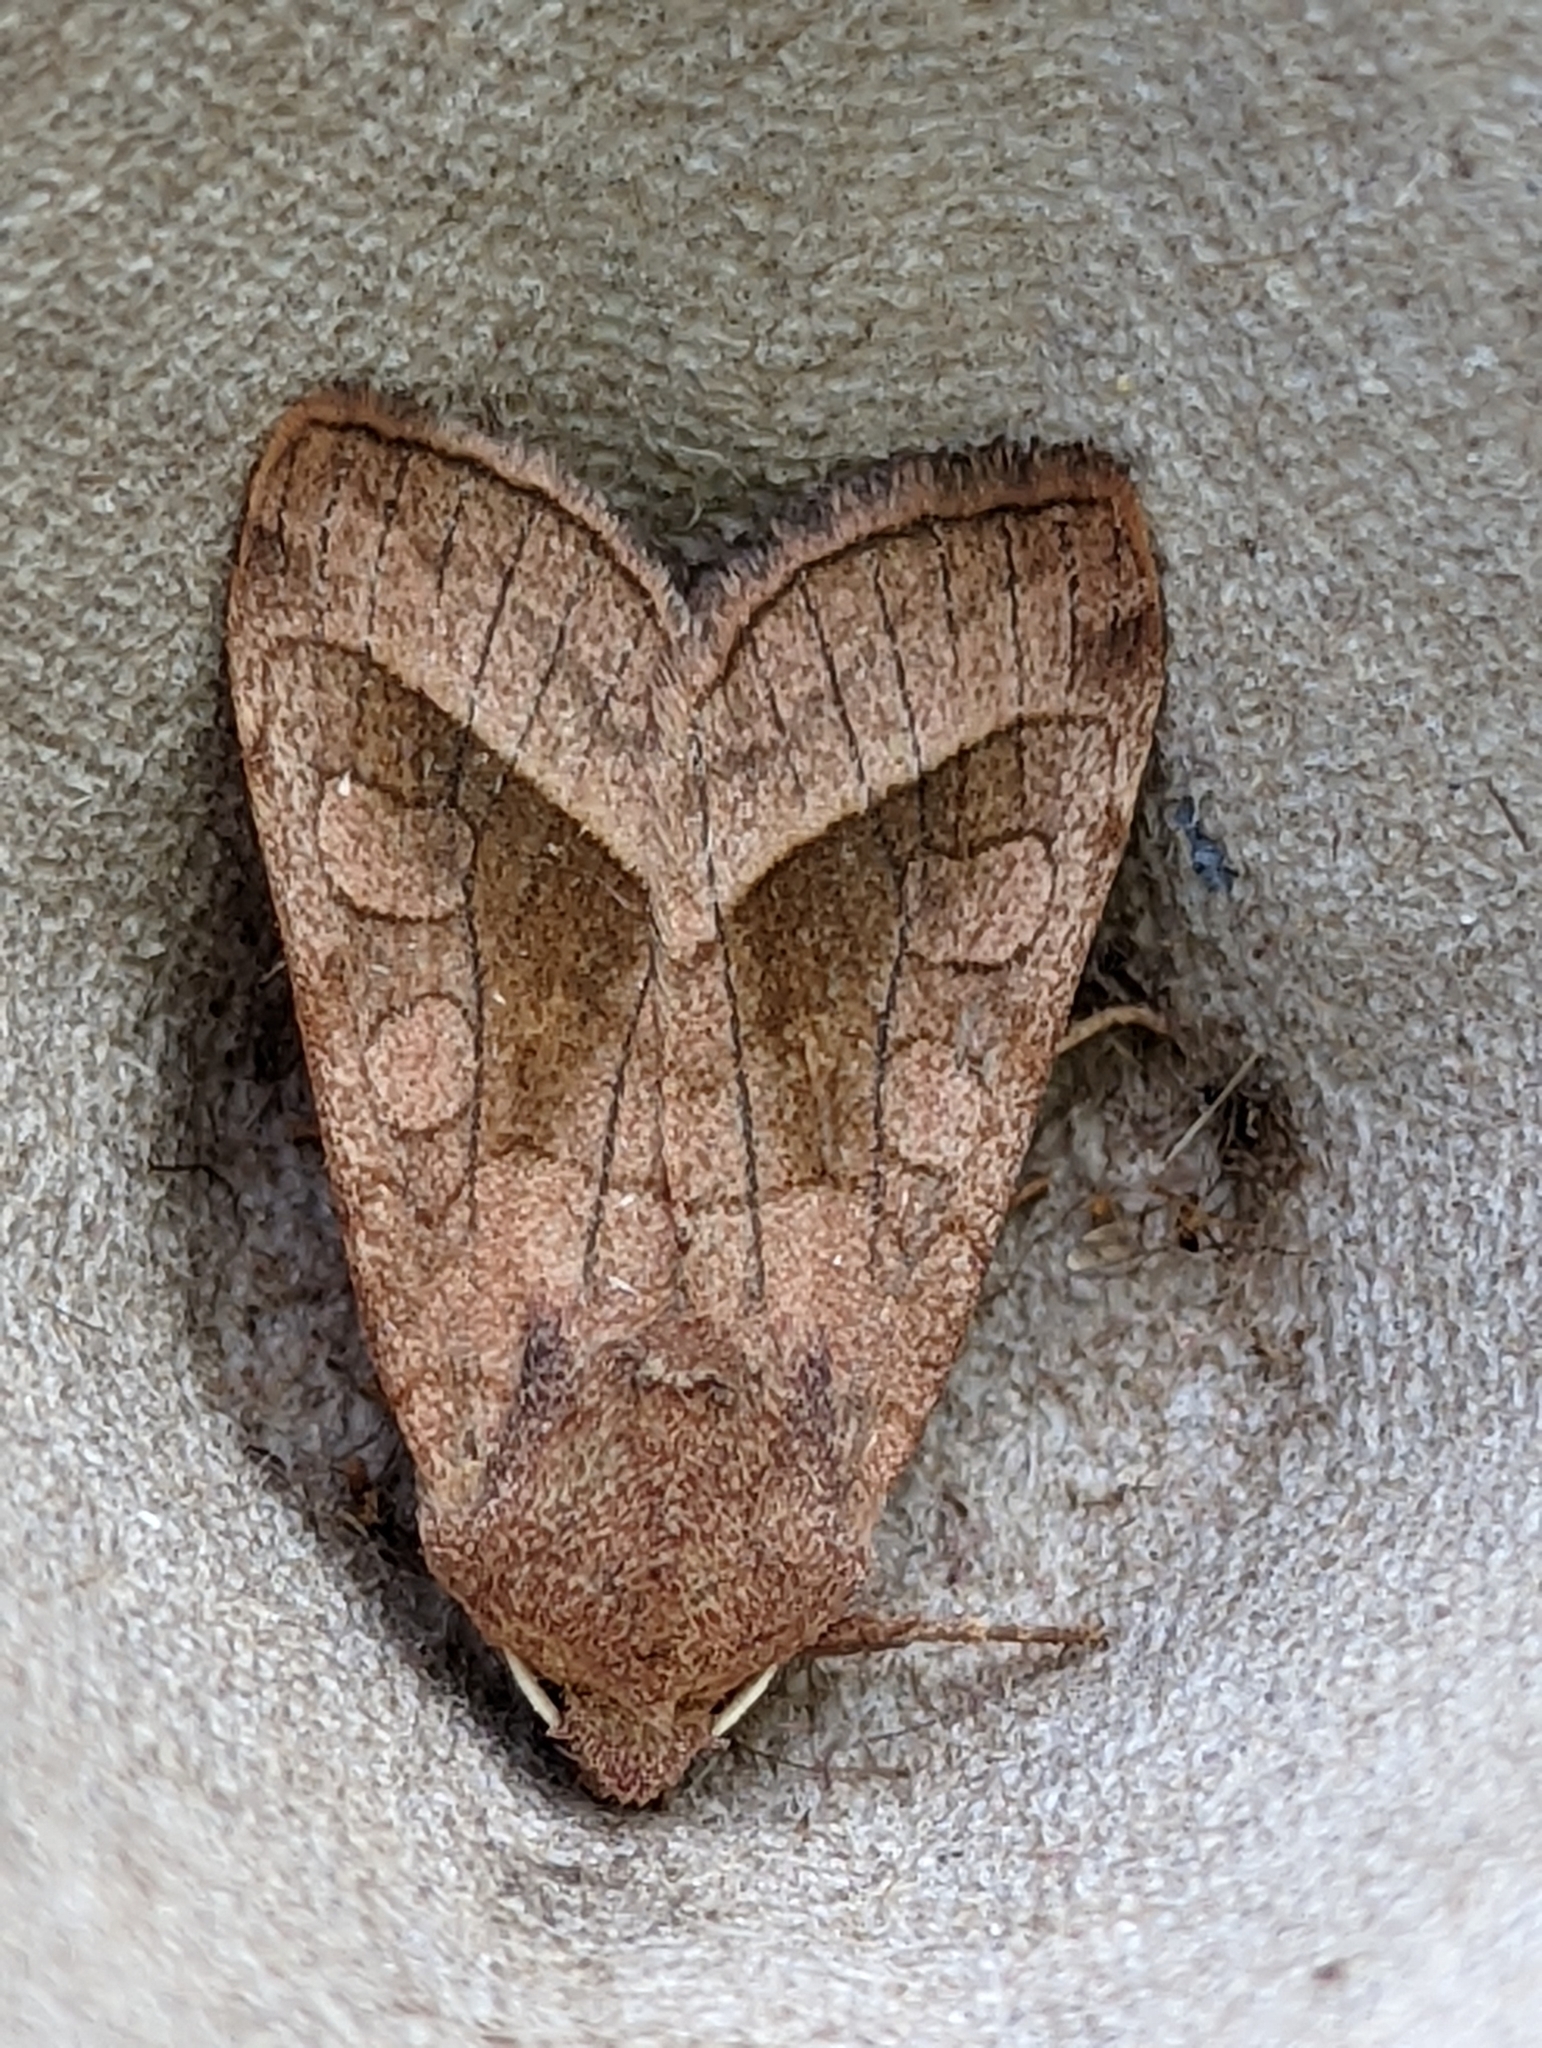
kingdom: Animalia
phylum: Arthropoda
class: Insecta
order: Lepidoptera
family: Noctuidae
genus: Hydraecia
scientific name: Hydraecia micacea
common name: Rosy rustic
